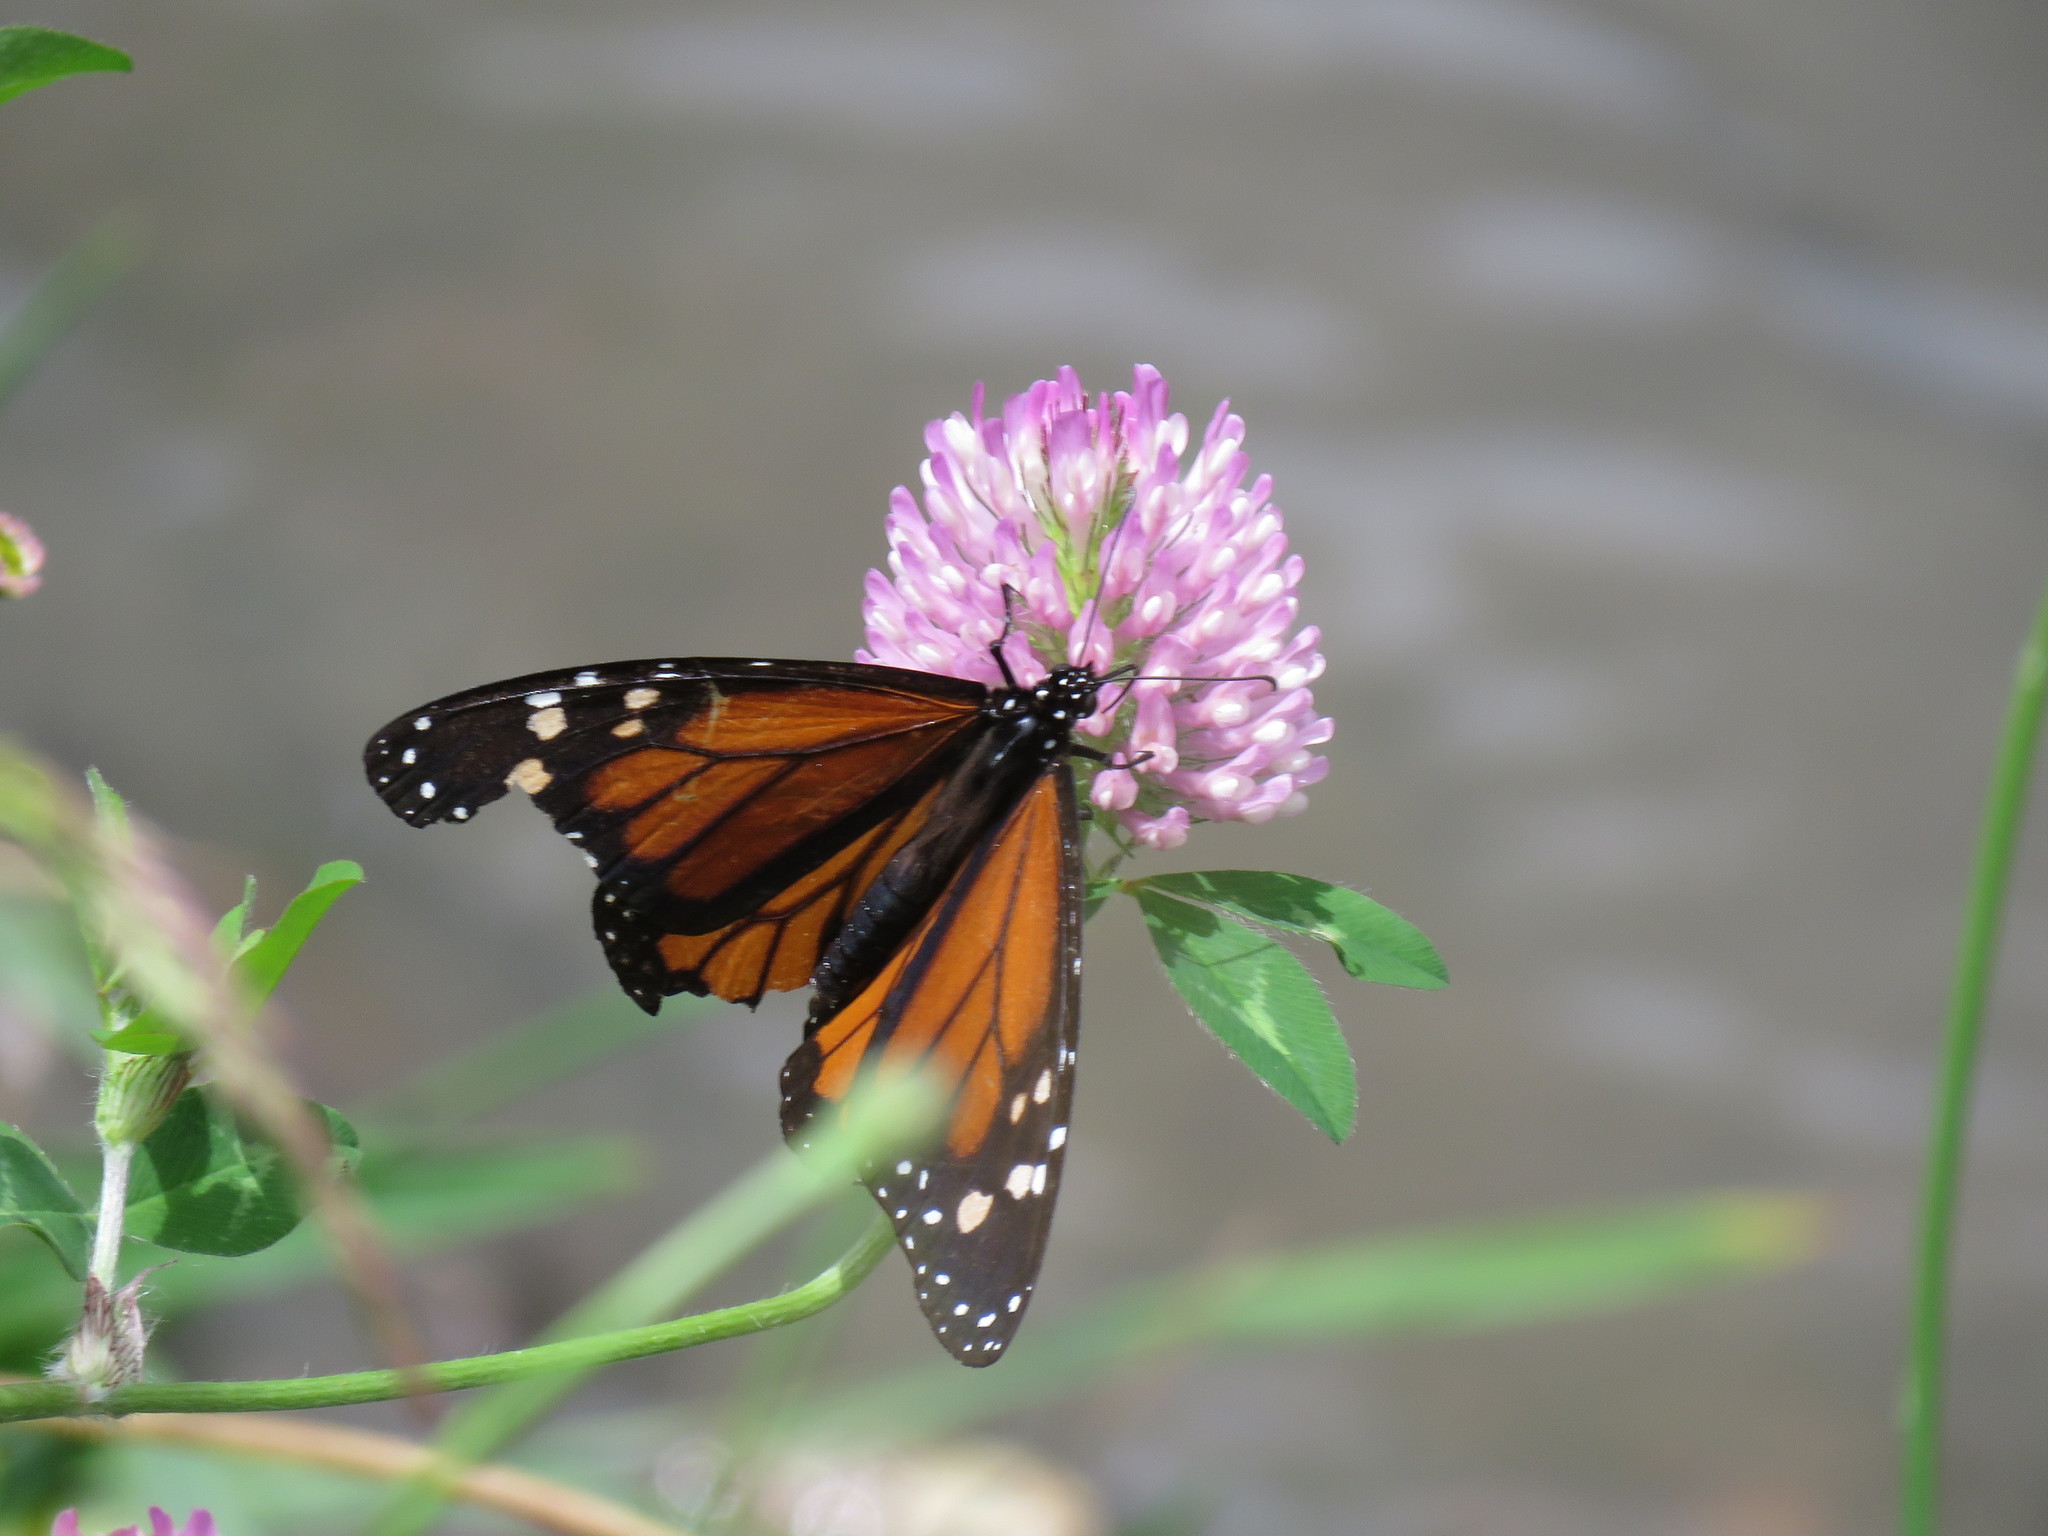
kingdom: Plantae
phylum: Tracheophyta
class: Magnoliopsida
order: Fabales
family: Fabaceae
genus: Trifolium
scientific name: Trifolium pratense
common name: Red clover
